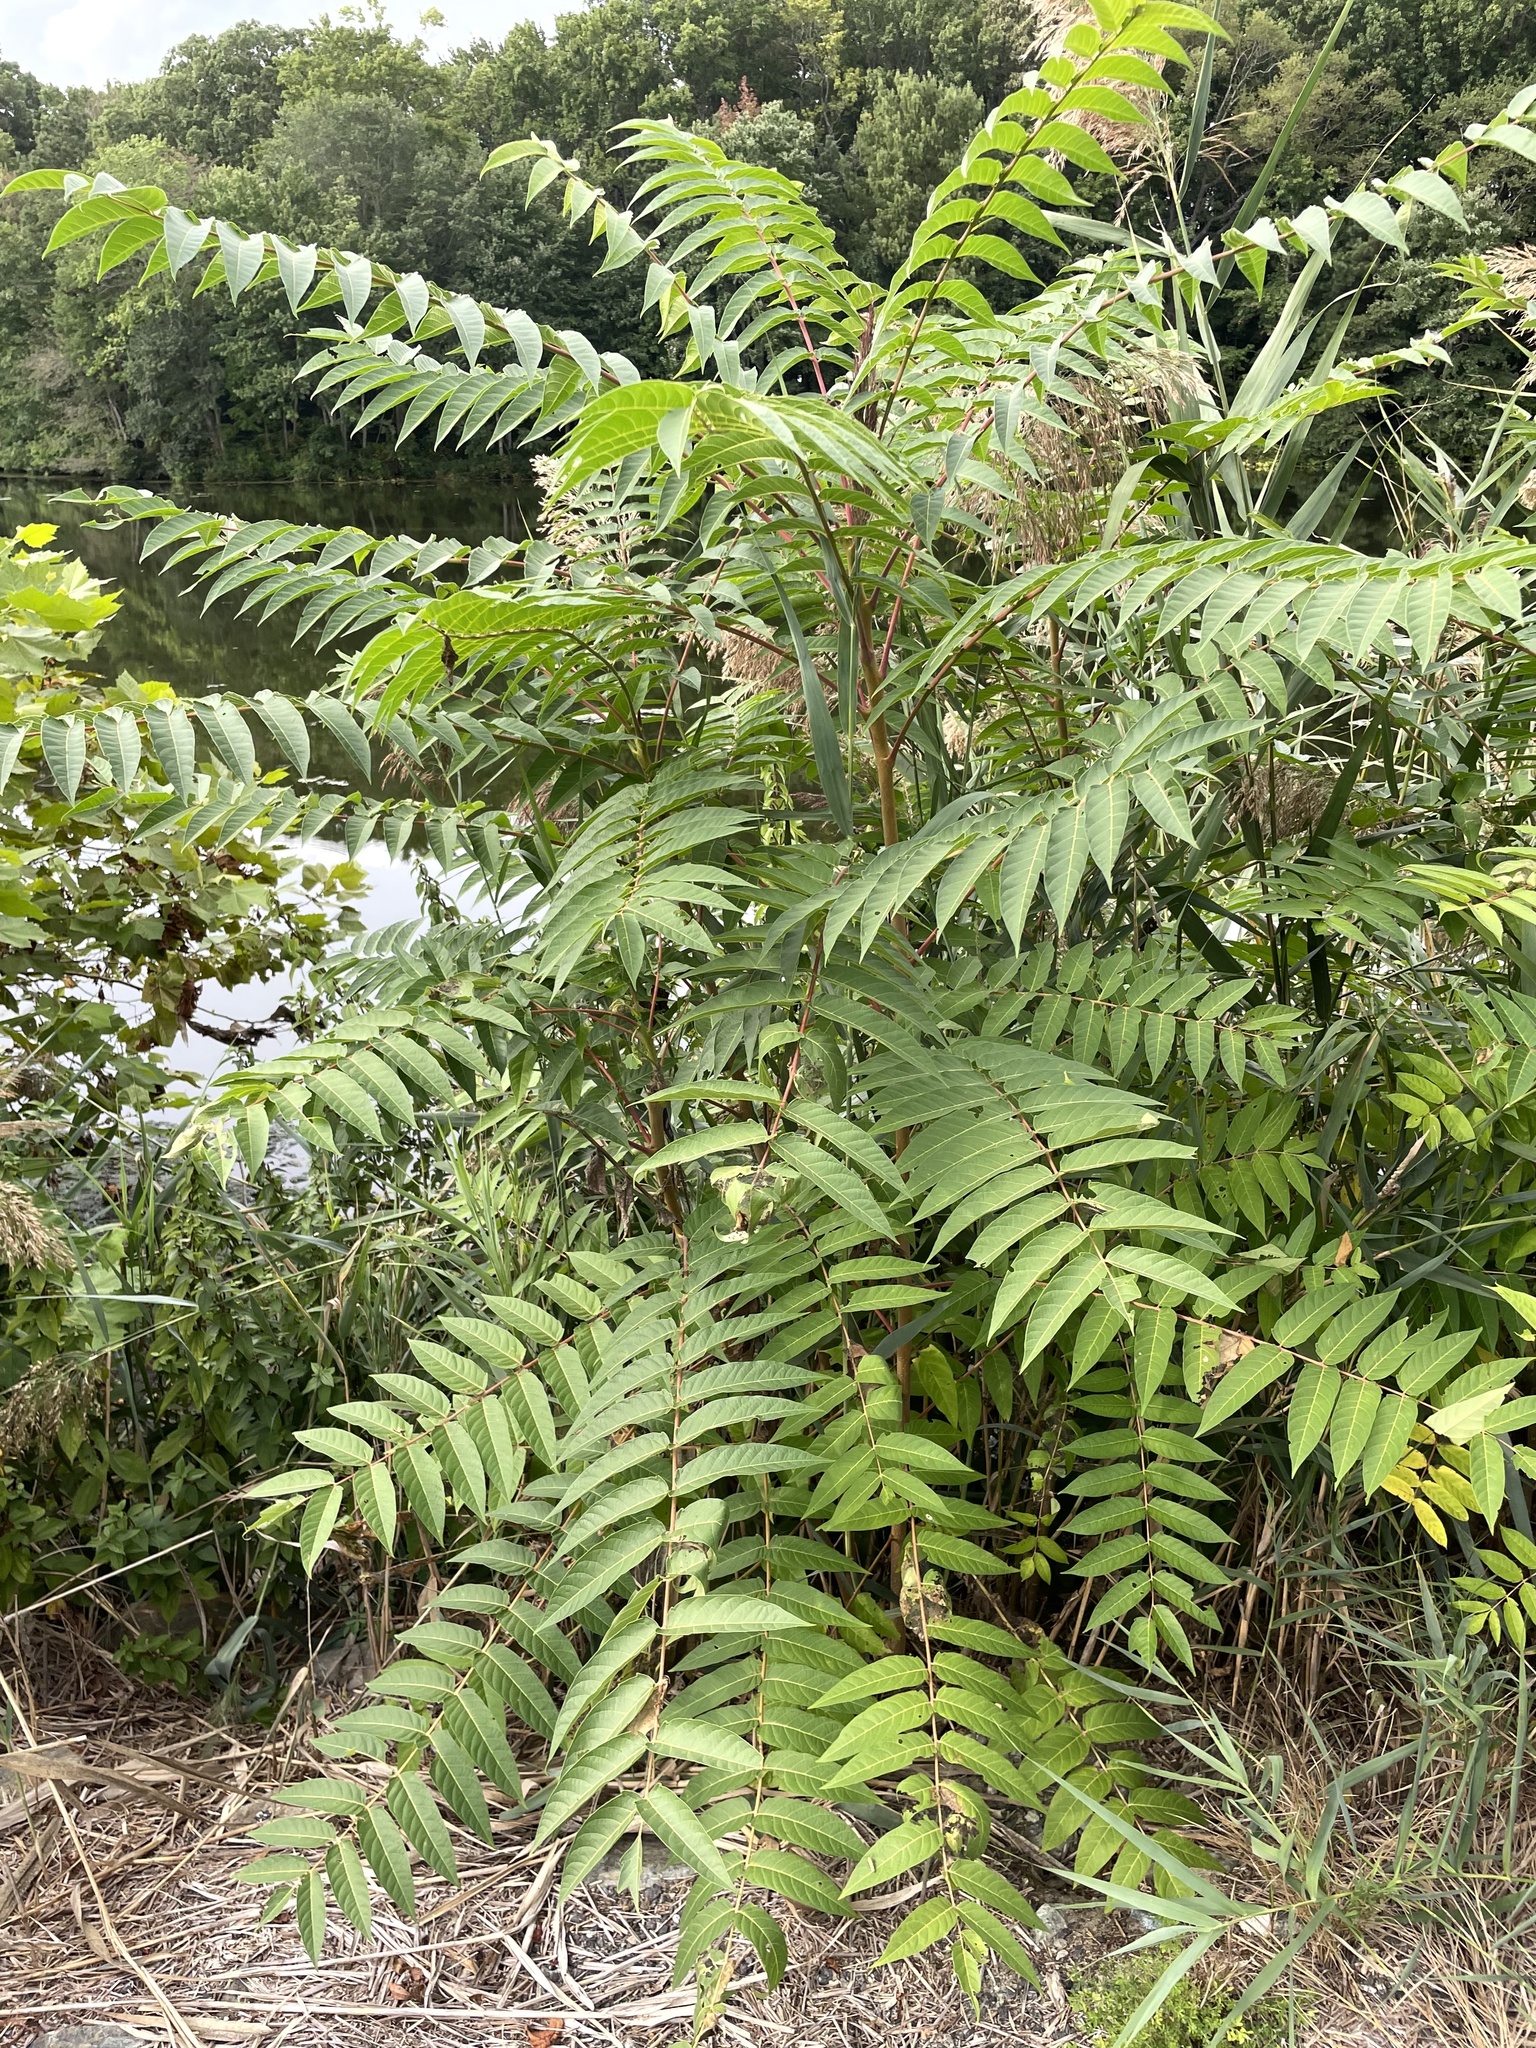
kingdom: Plantae
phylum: Tracheophyta
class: Magnoliopsida
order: Sapindales
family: Simaroubaceae
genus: Ailanthus
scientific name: Ailanthus altissima
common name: Tree-of-heaven
